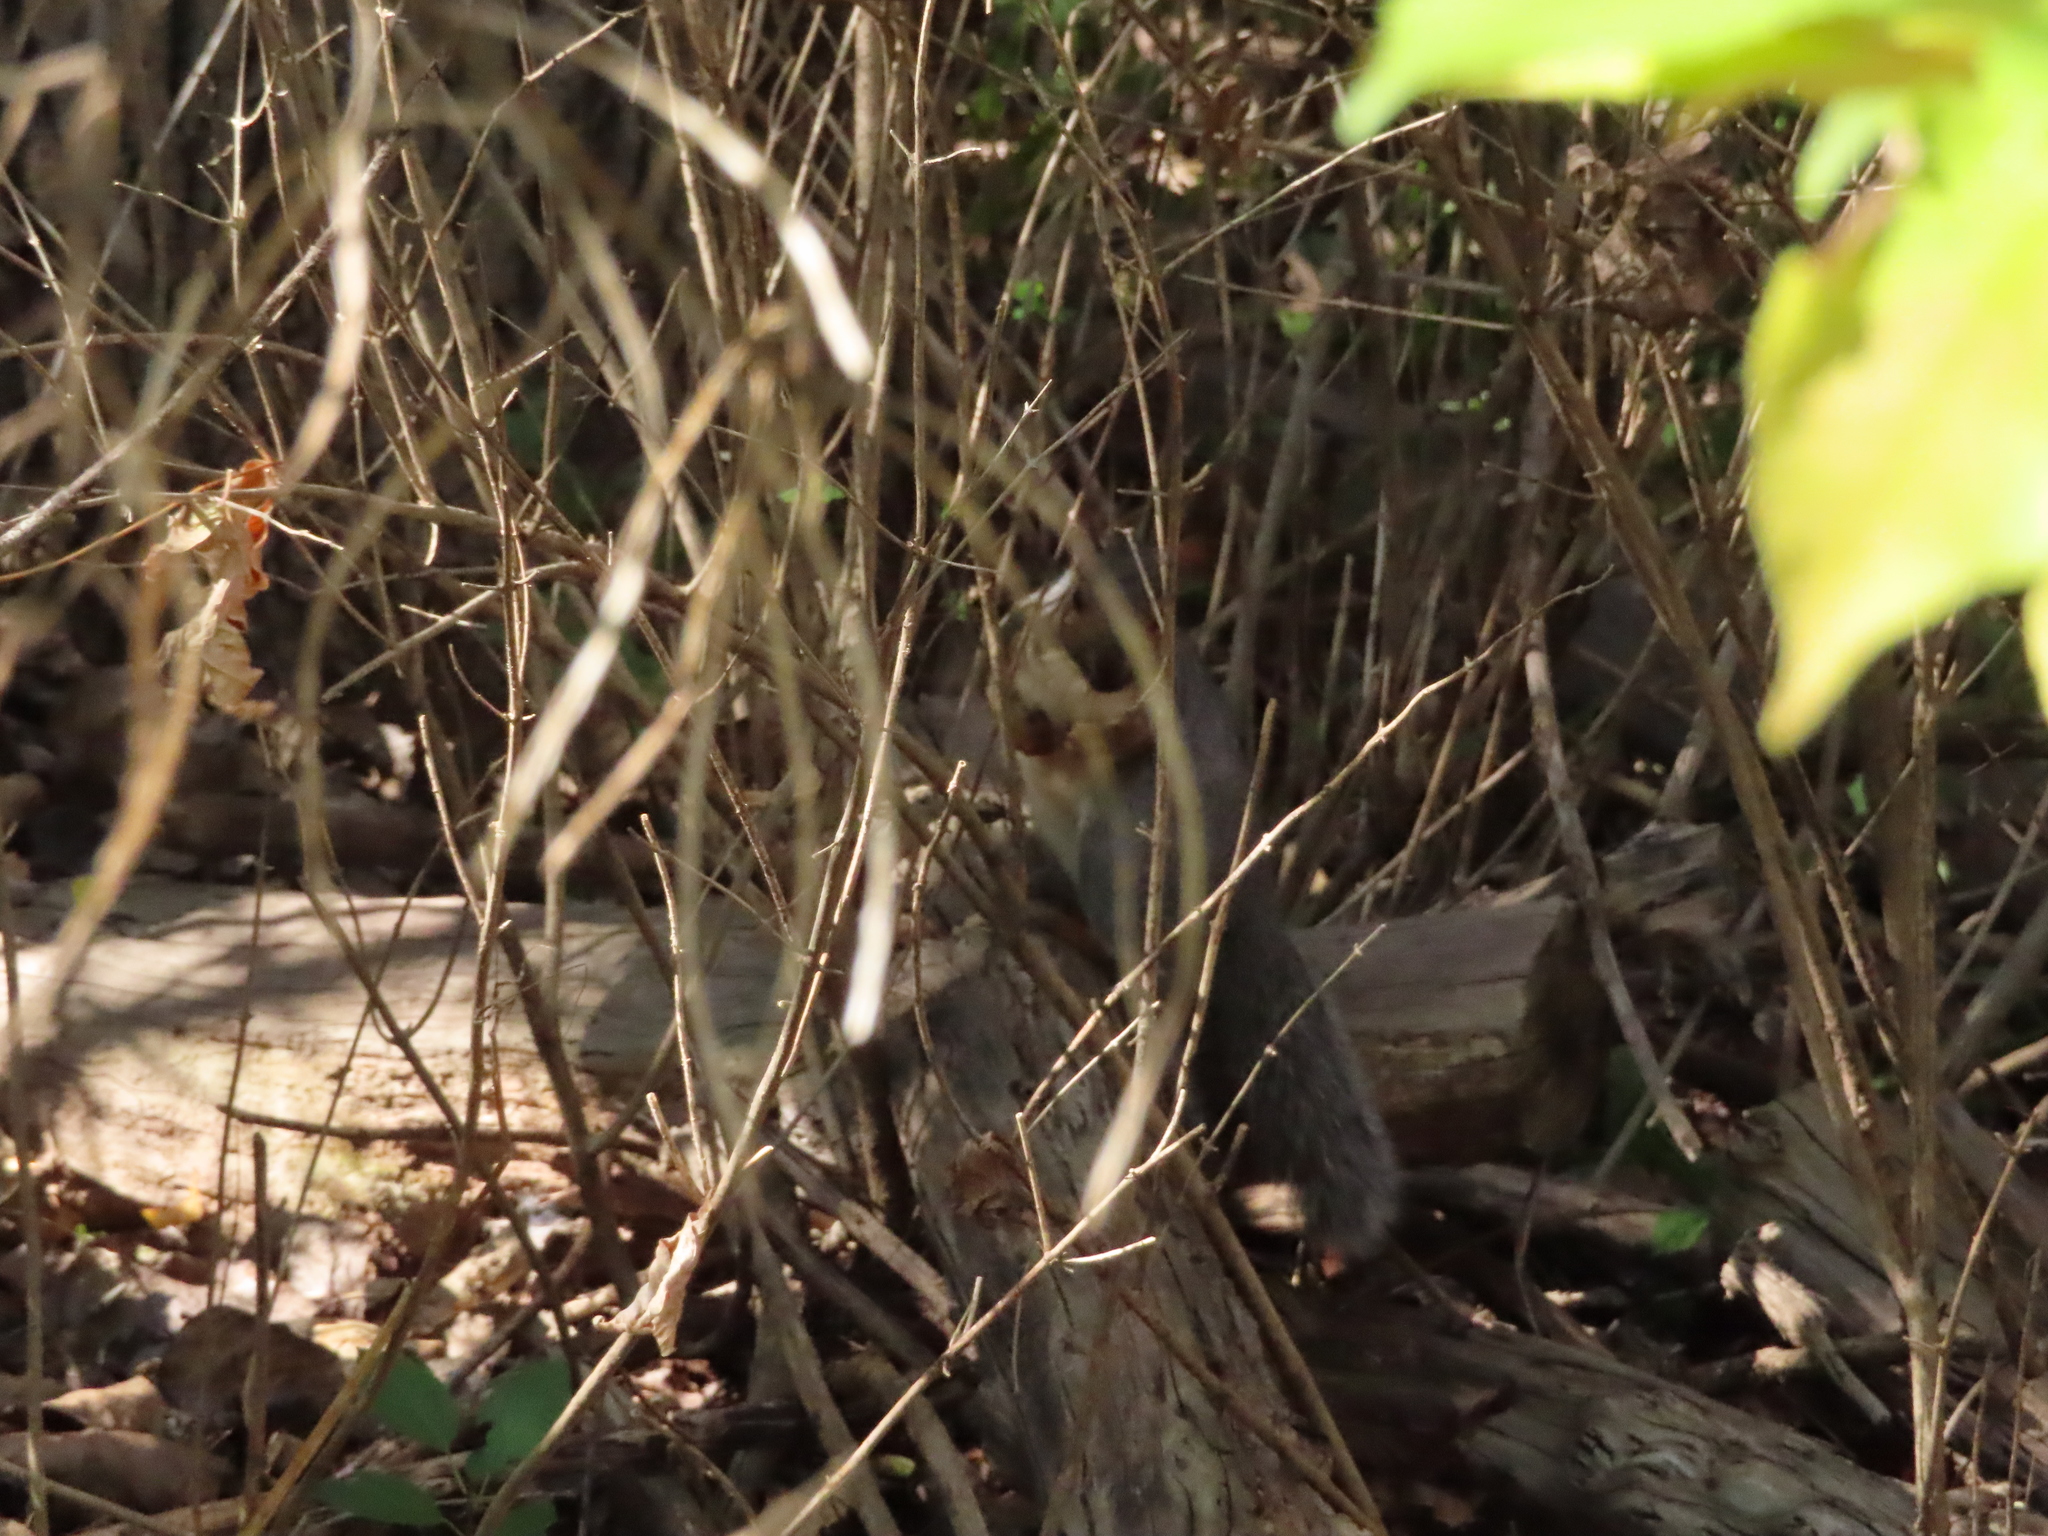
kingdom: Animalia
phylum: Chordata
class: Mammalia
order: Rodentia
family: Sciuridae
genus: Sciurus
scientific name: Sciurus carolinensis
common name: Eastern gray squirrel
